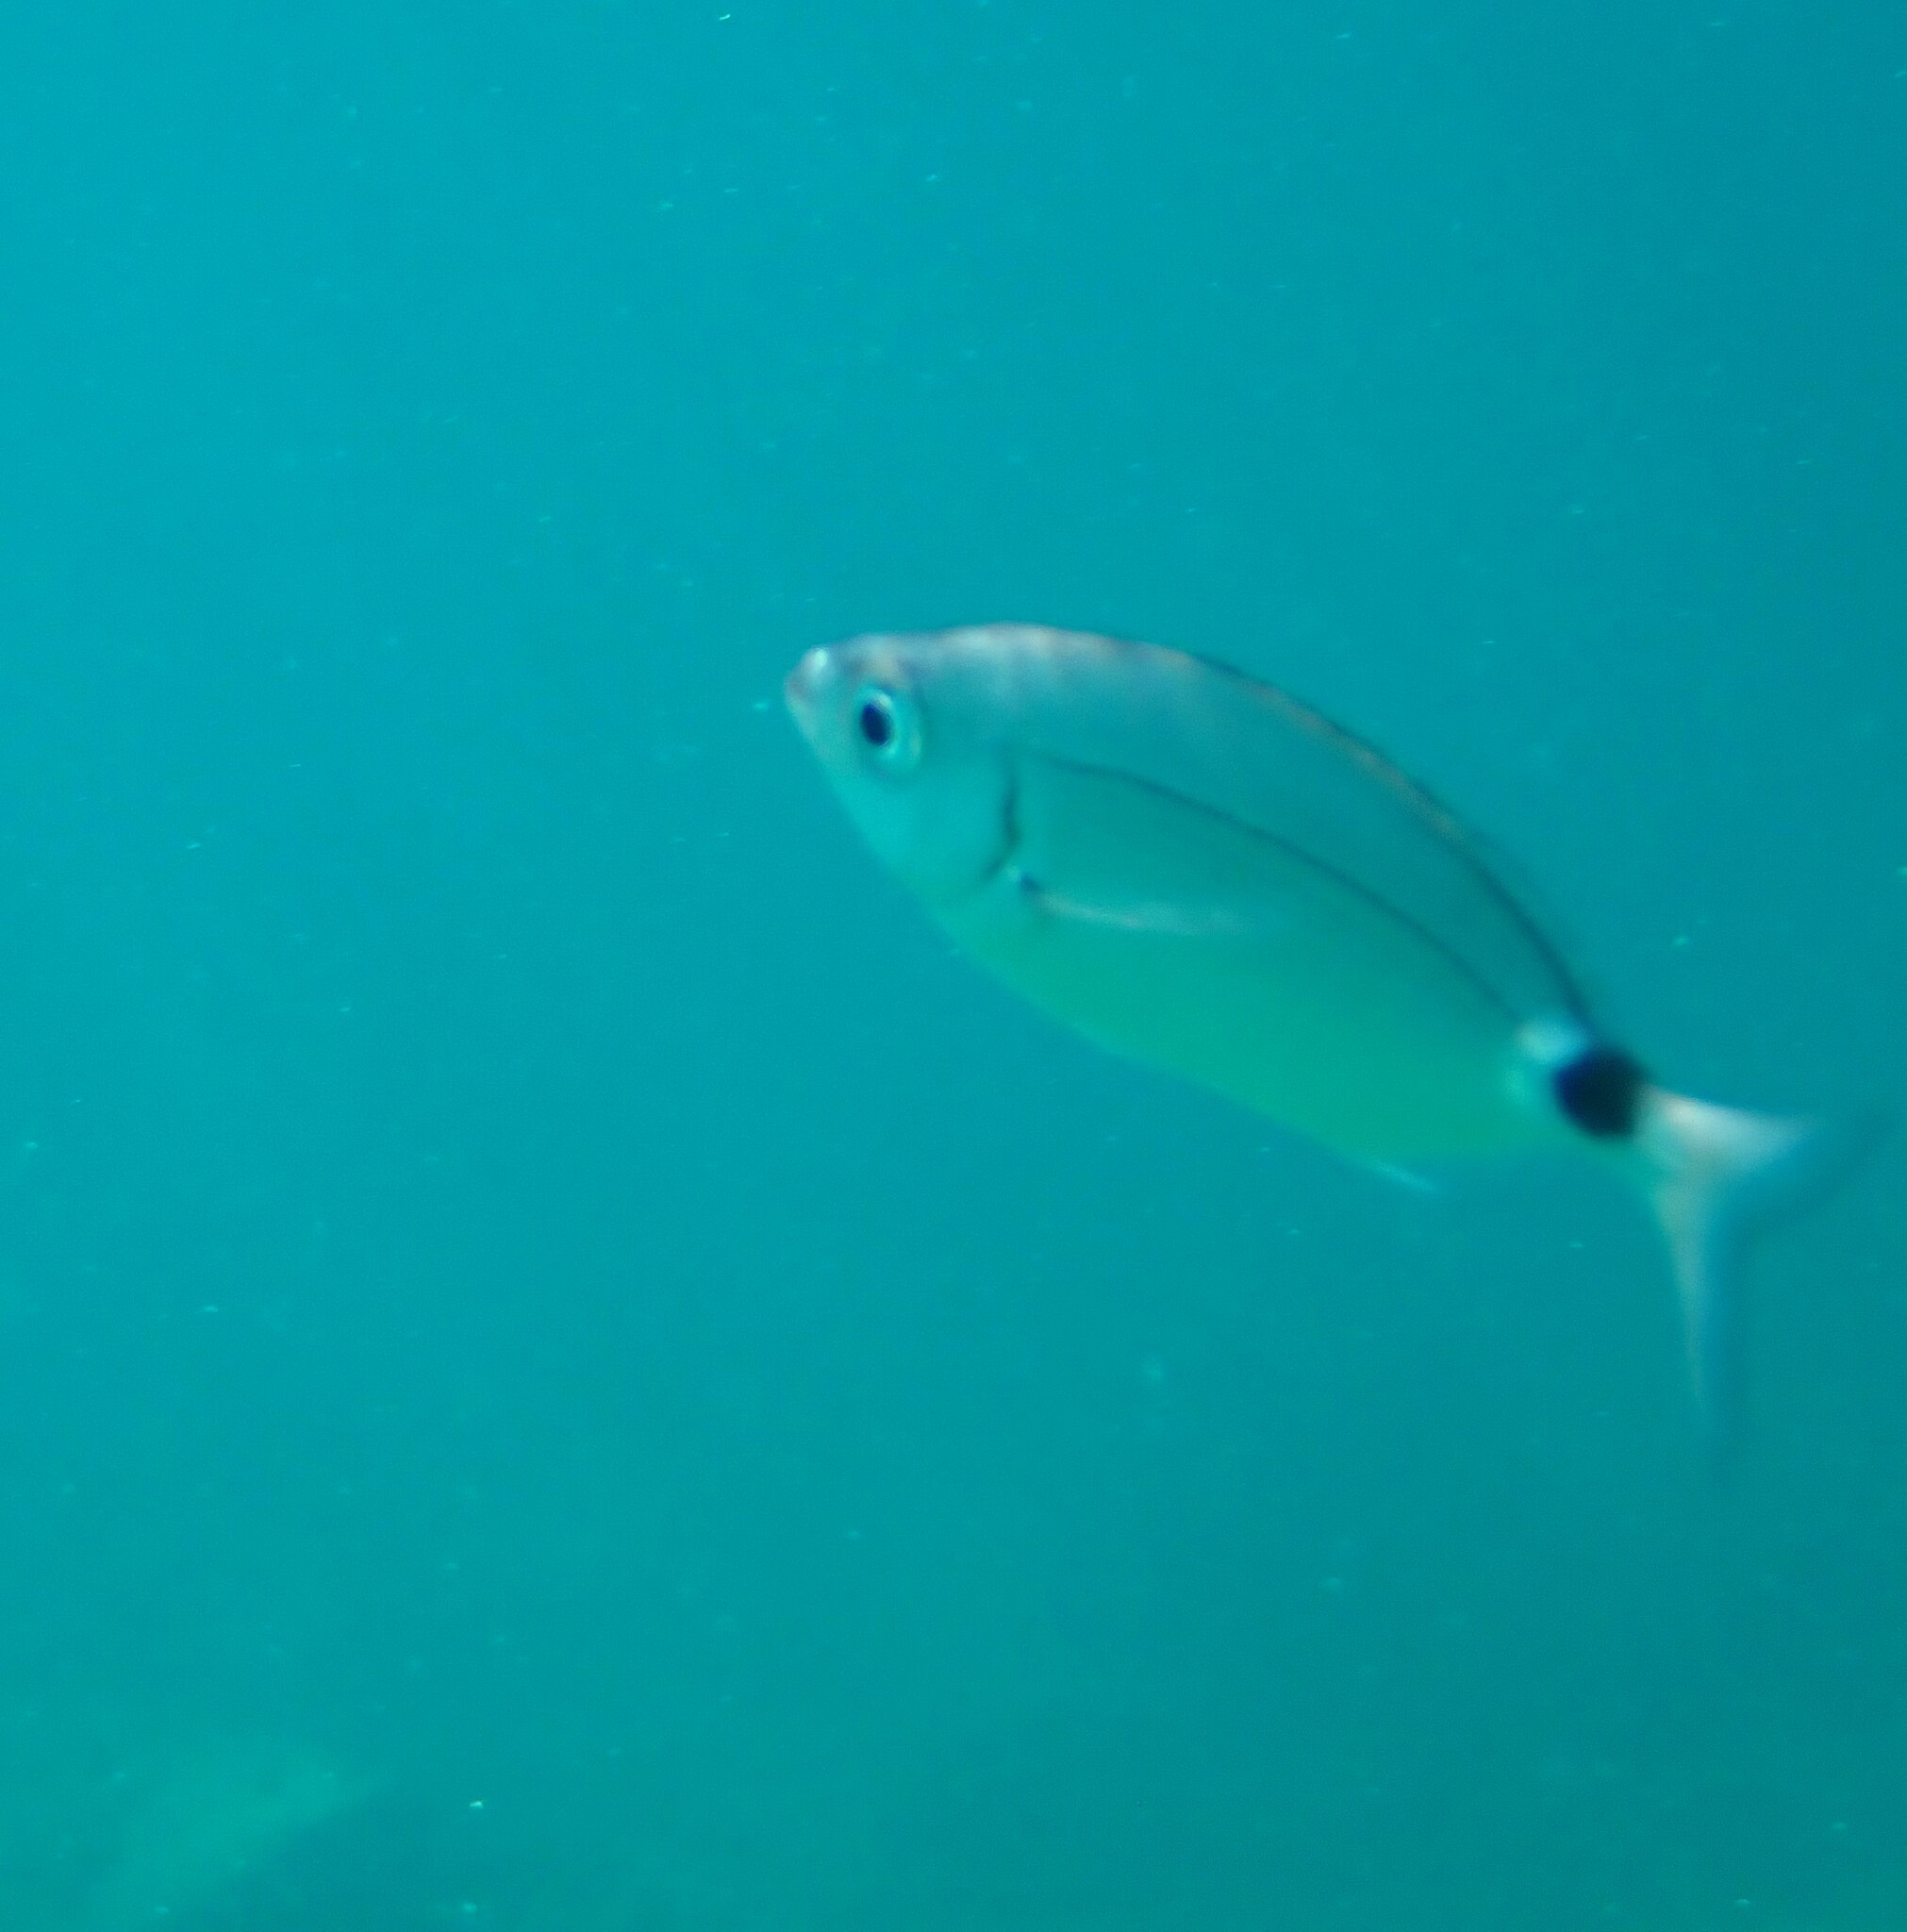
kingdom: Animalia
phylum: Chordata
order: Perciformes
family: Sparidae
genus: Oblada
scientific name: Oblada melanura
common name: Saddled seabream
